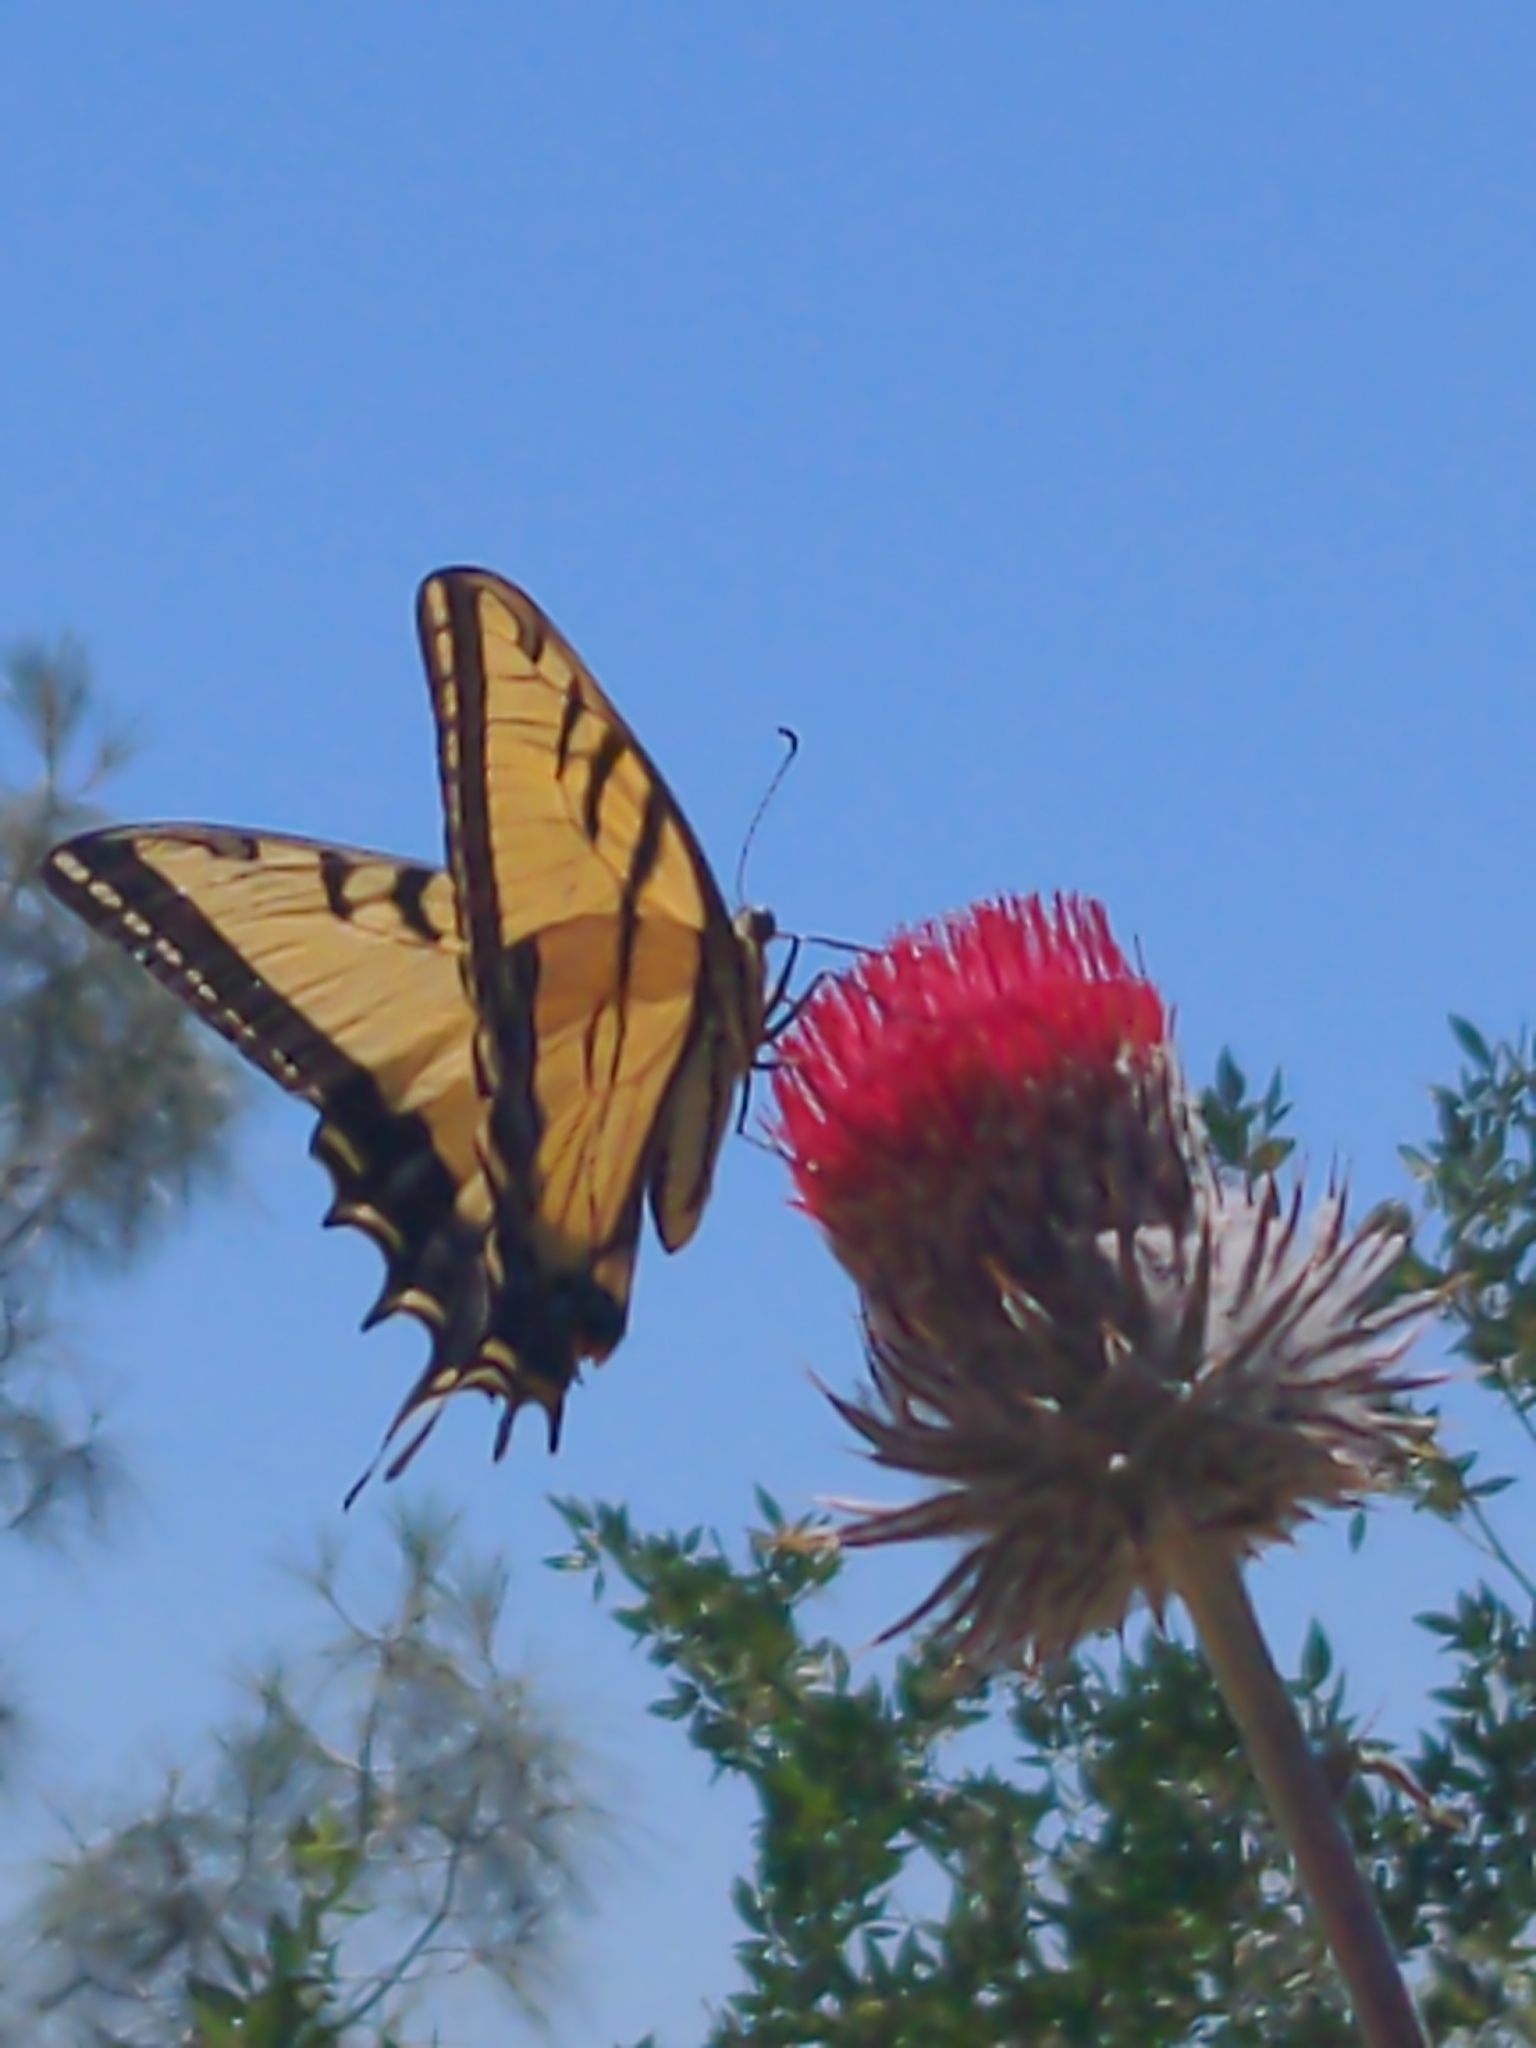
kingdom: Animalia
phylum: Arthropoda
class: Insecta
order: Lepidoptera
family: Papilionidae
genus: Papilio
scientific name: Papilio multicaudata
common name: Two-tailed tiger swallowtail
